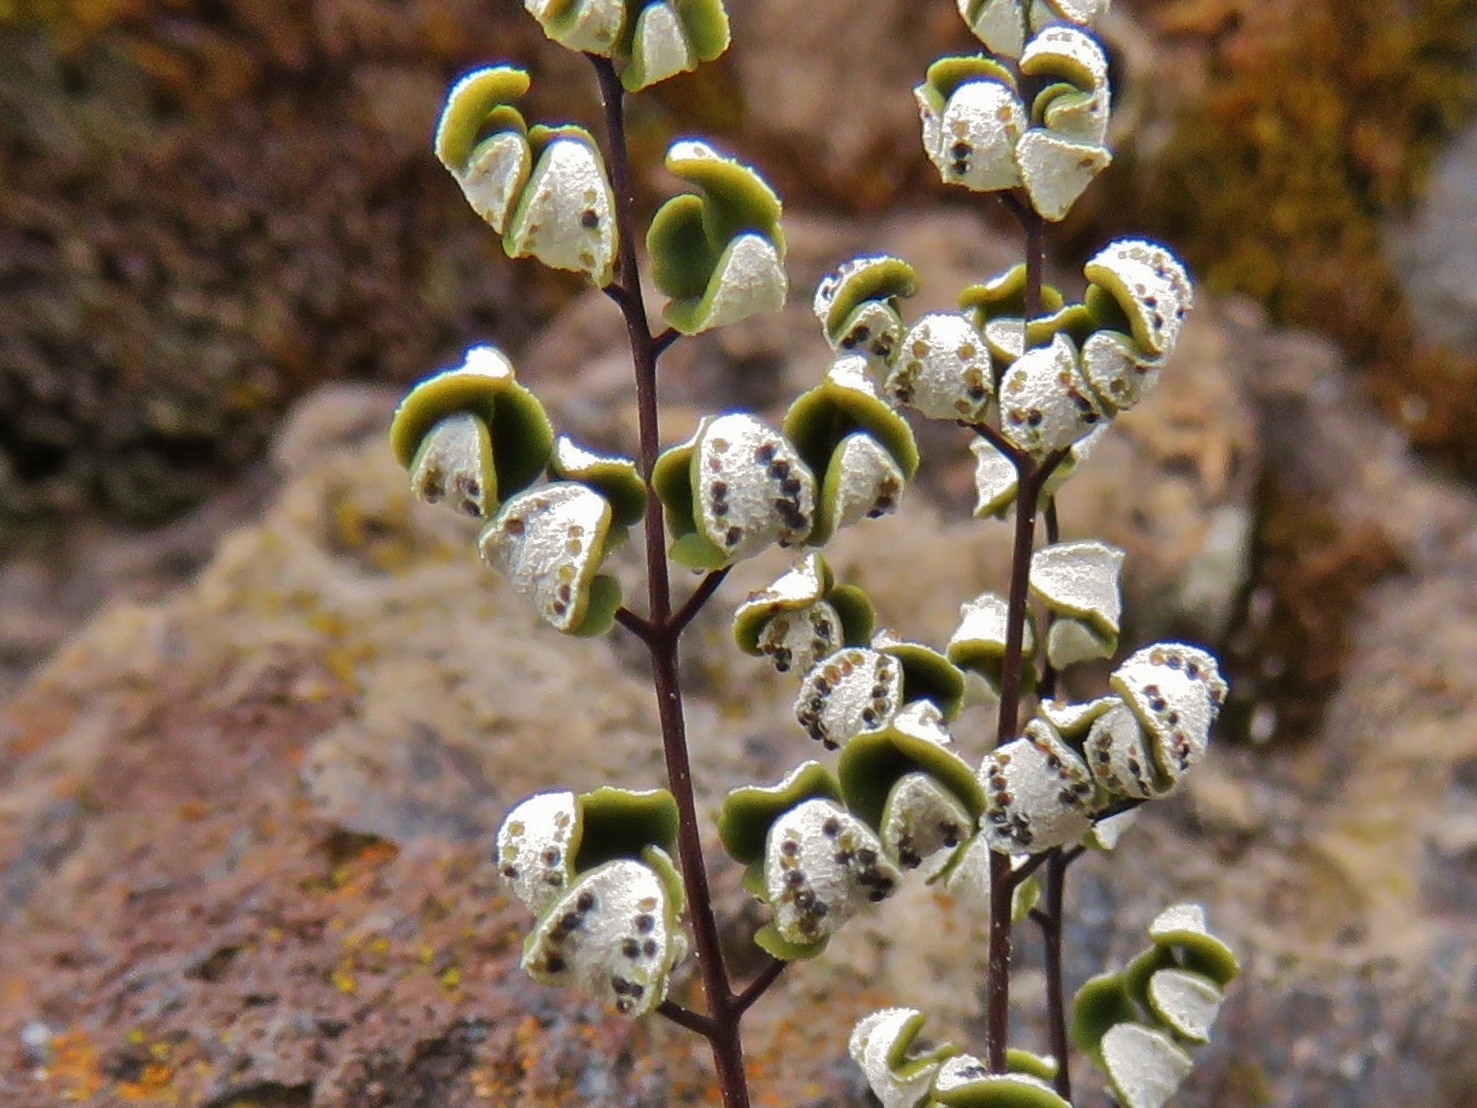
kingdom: Plantae
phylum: Tracheophyta
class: Polypodiopsida
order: Polypodiales
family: Pteridaceae
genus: Argyrochosma
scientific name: Argyrochosma nivea
